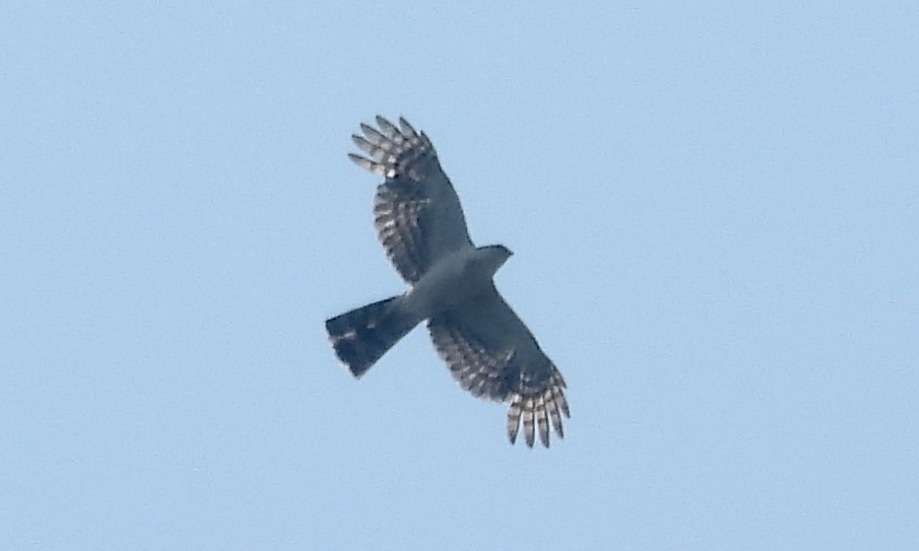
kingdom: Animalia
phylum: Chordata
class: Aves
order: Accipitriformes
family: Accipitridae
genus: Accipiter
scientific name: Accipiter striatus
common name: Sharp-shinned hawk
